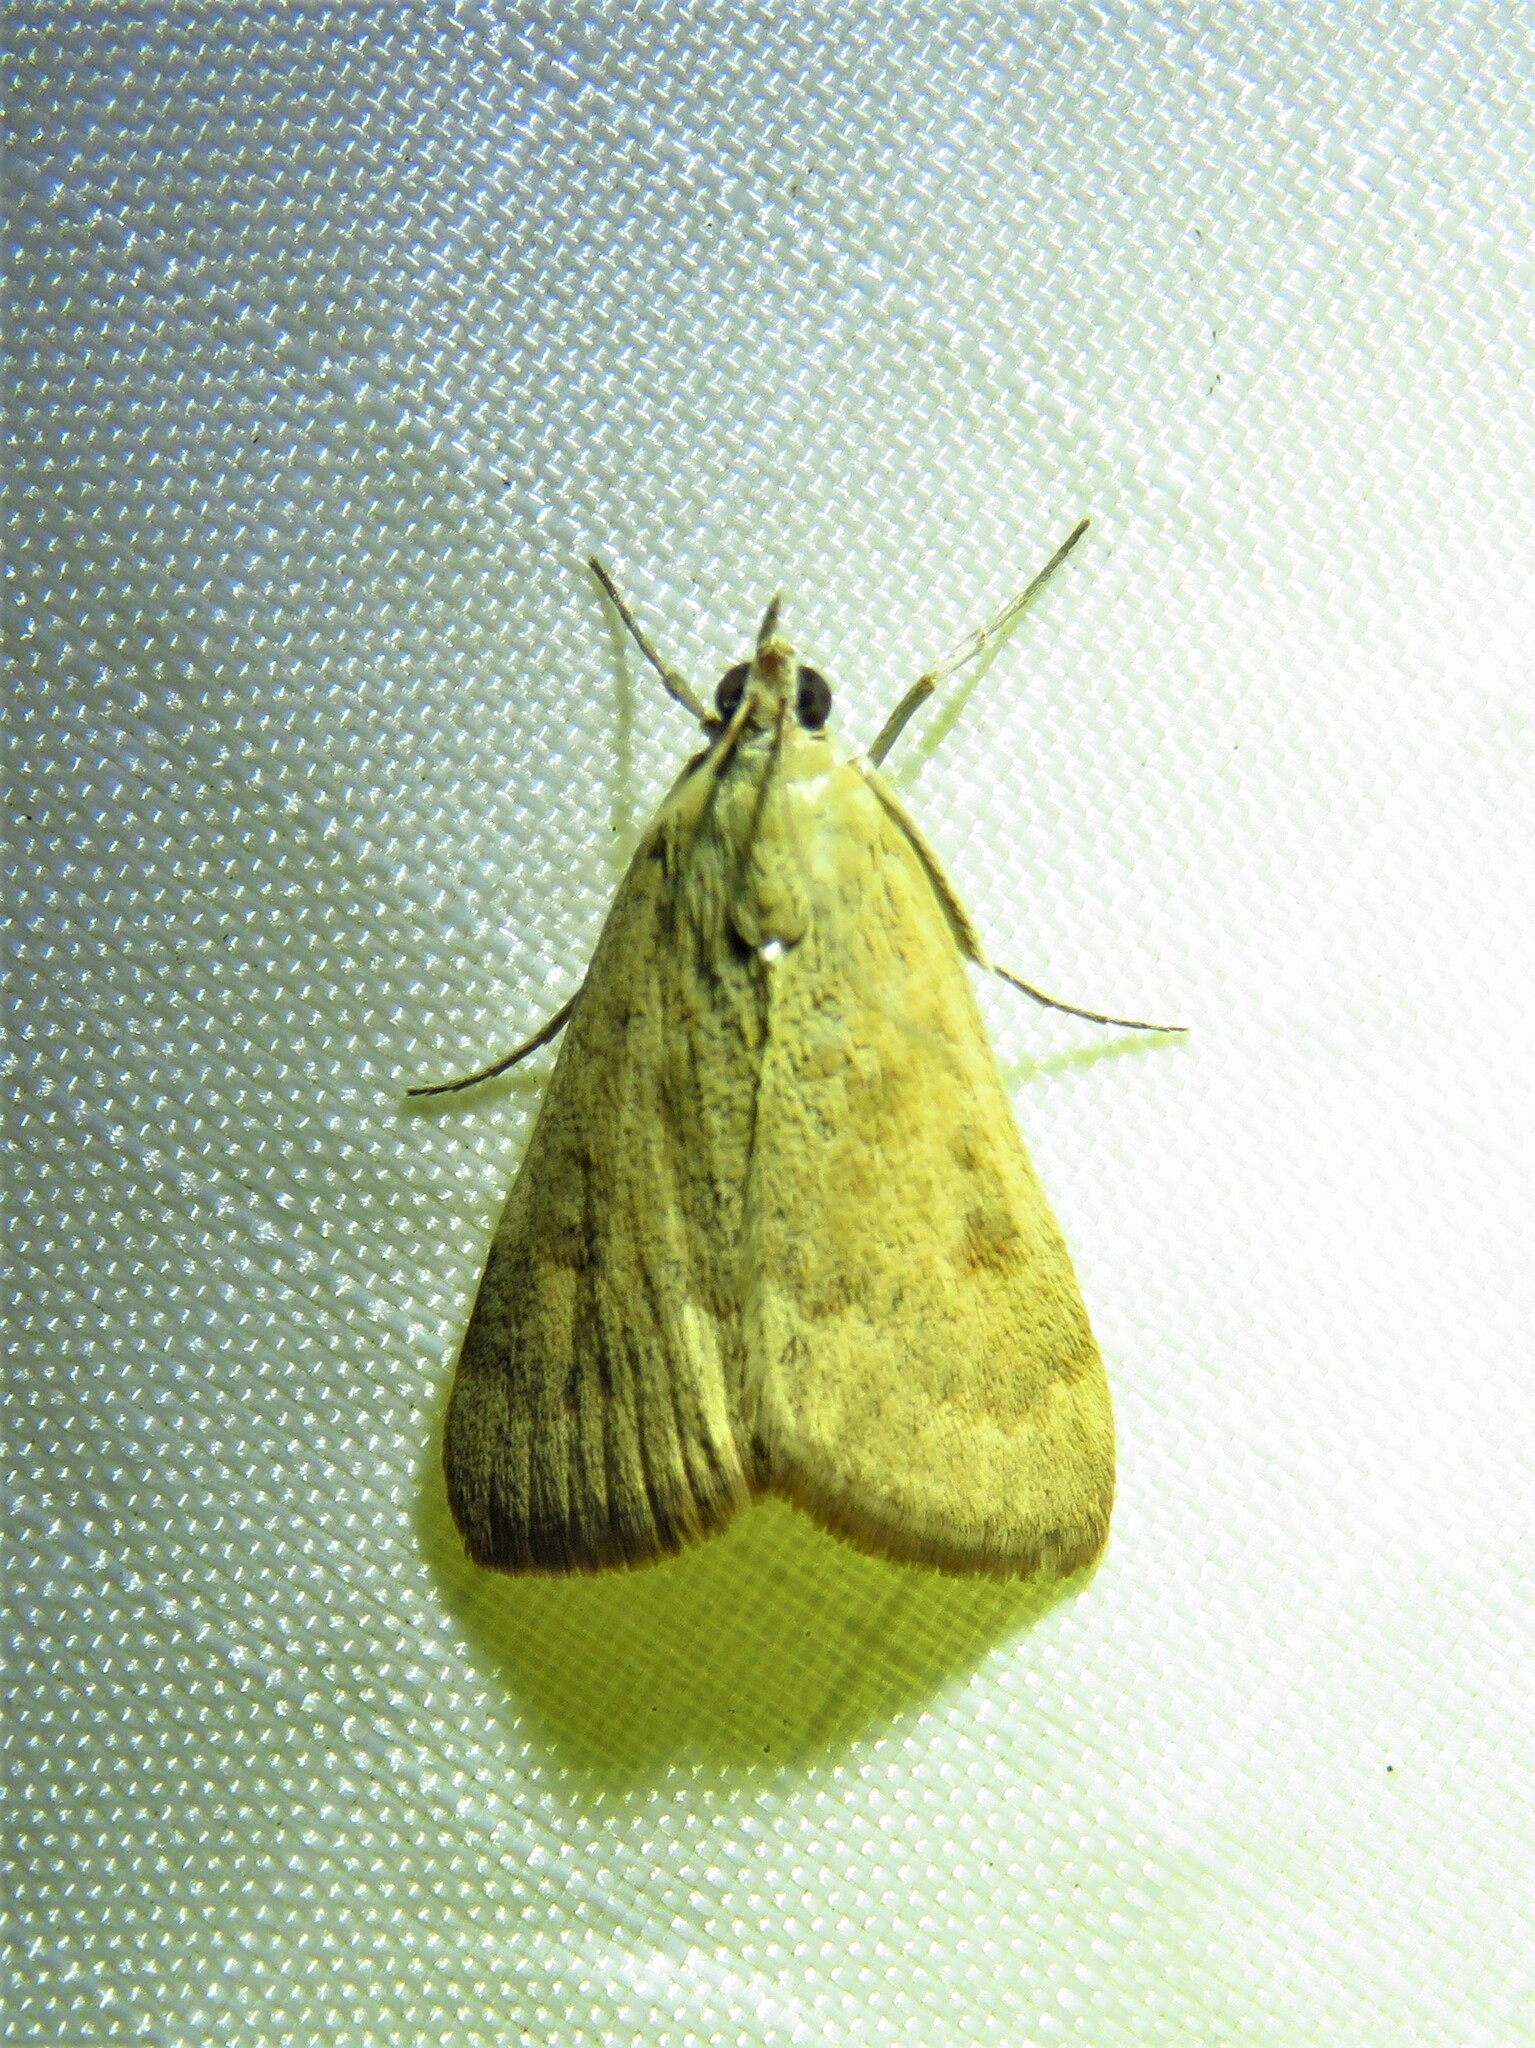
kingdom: Animalia
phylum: Arthropoda
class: Insecta
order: Lepidoptera
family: Crambidae
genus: Achyra
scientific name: Achyra rantalis
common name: Garden webworm
